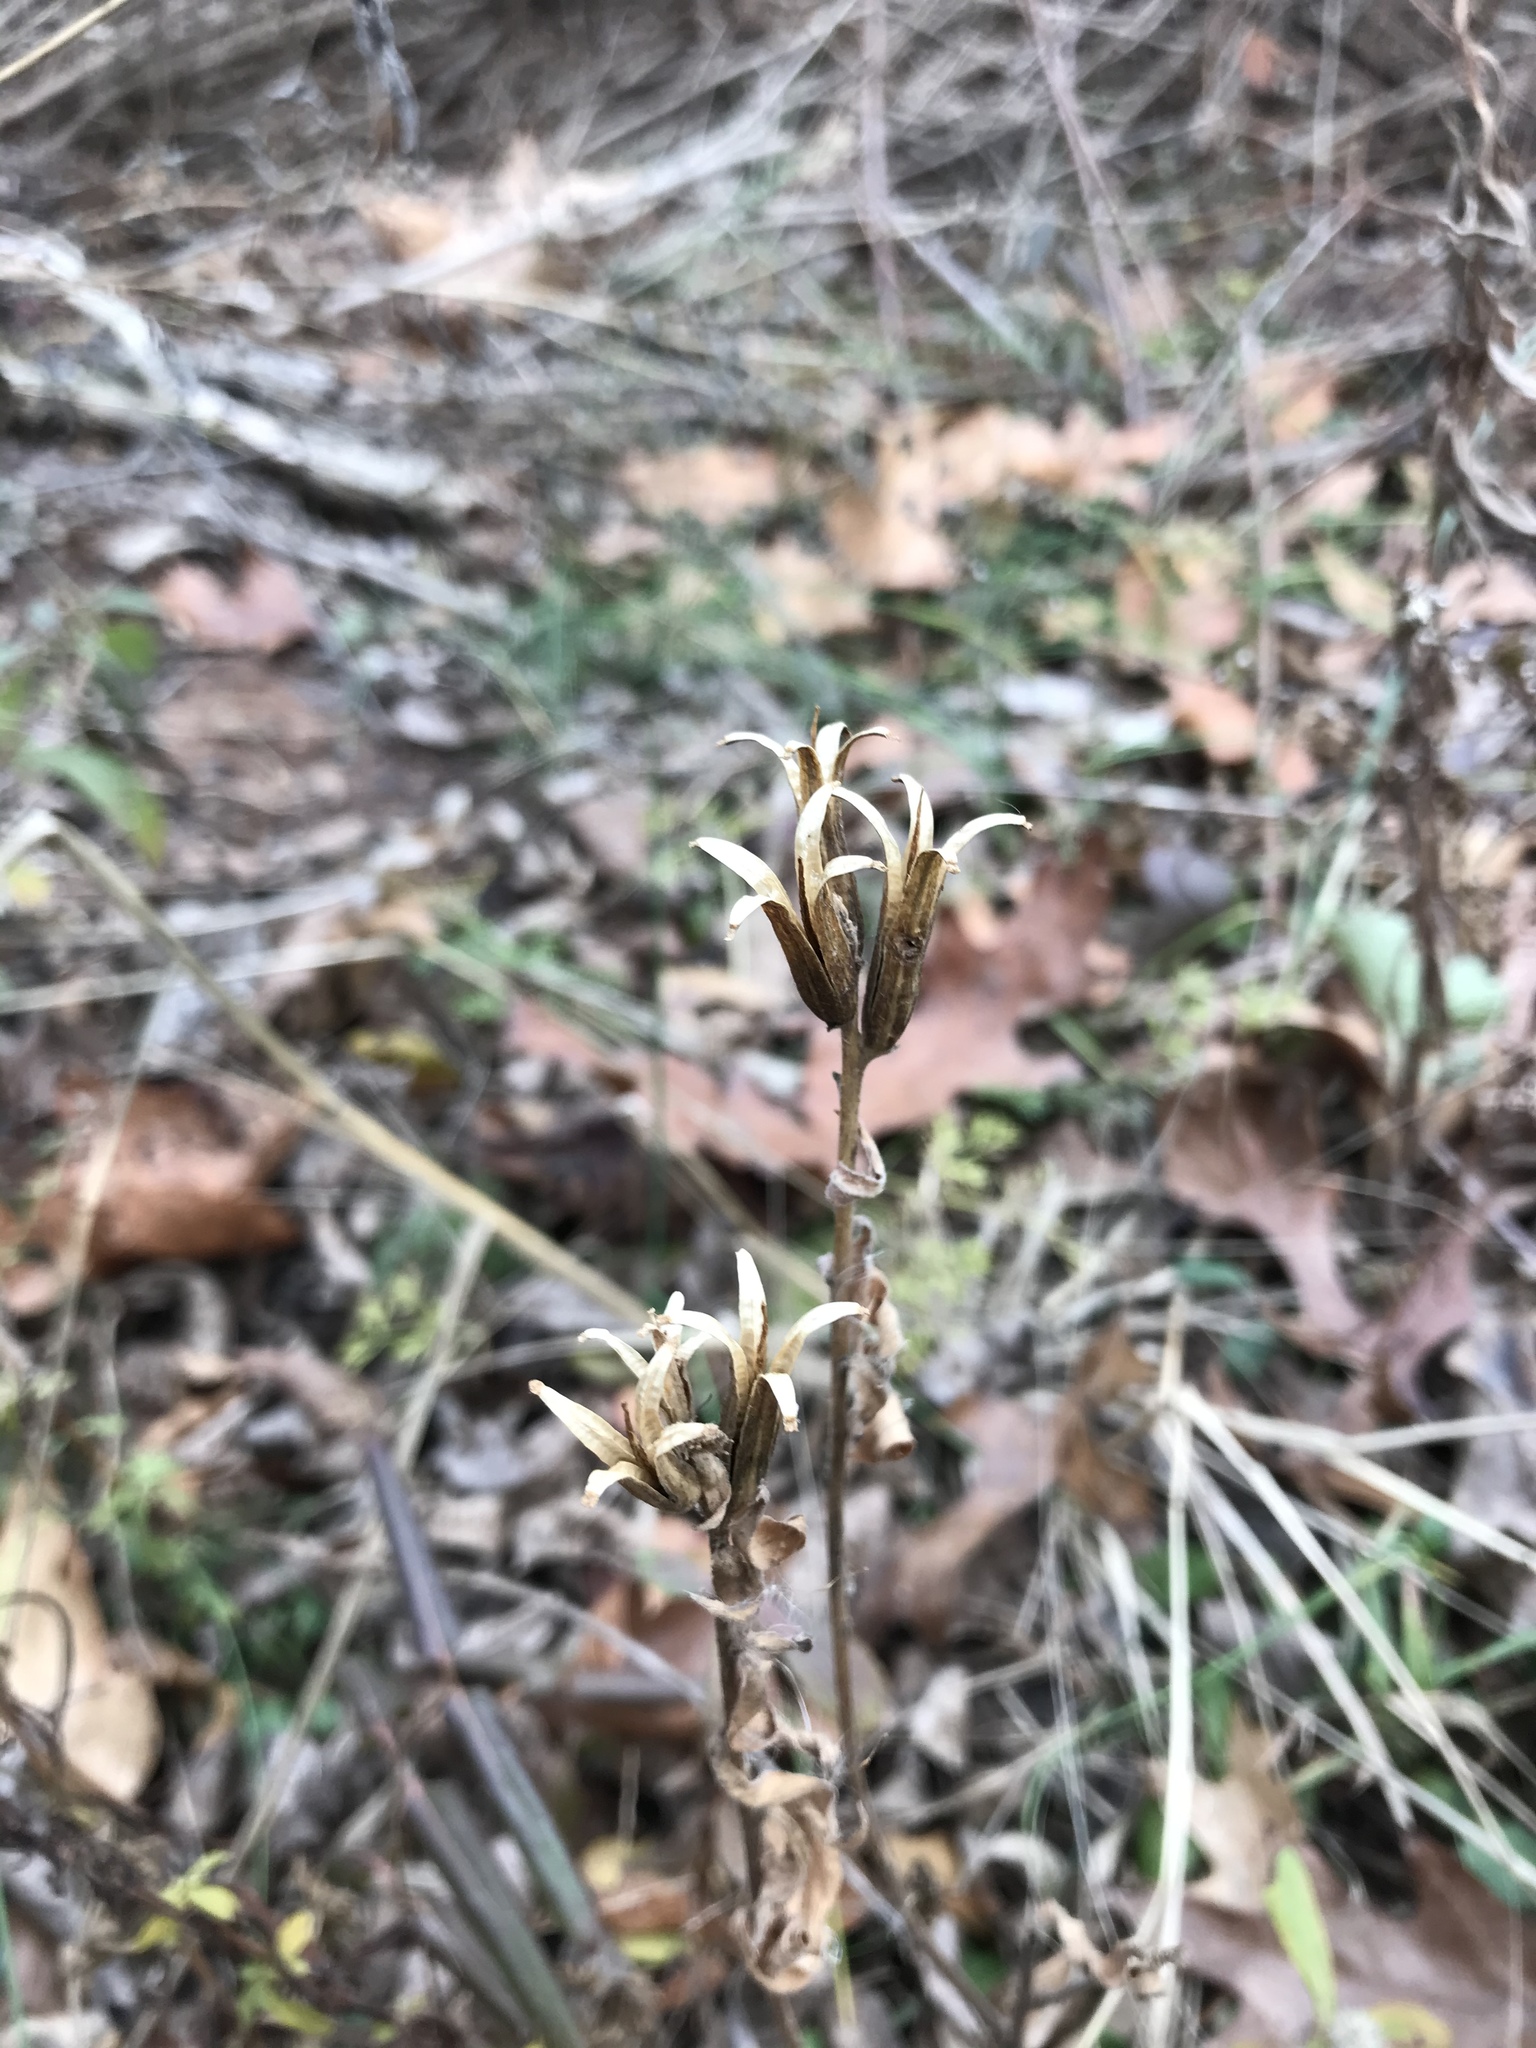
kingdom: Plantae
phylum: Tracheophyta
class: Magnoliopsida
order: Myrtales
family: Onagraceae
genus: Oenothera
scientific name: Oenothera biennis
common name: Common evening-primrose
